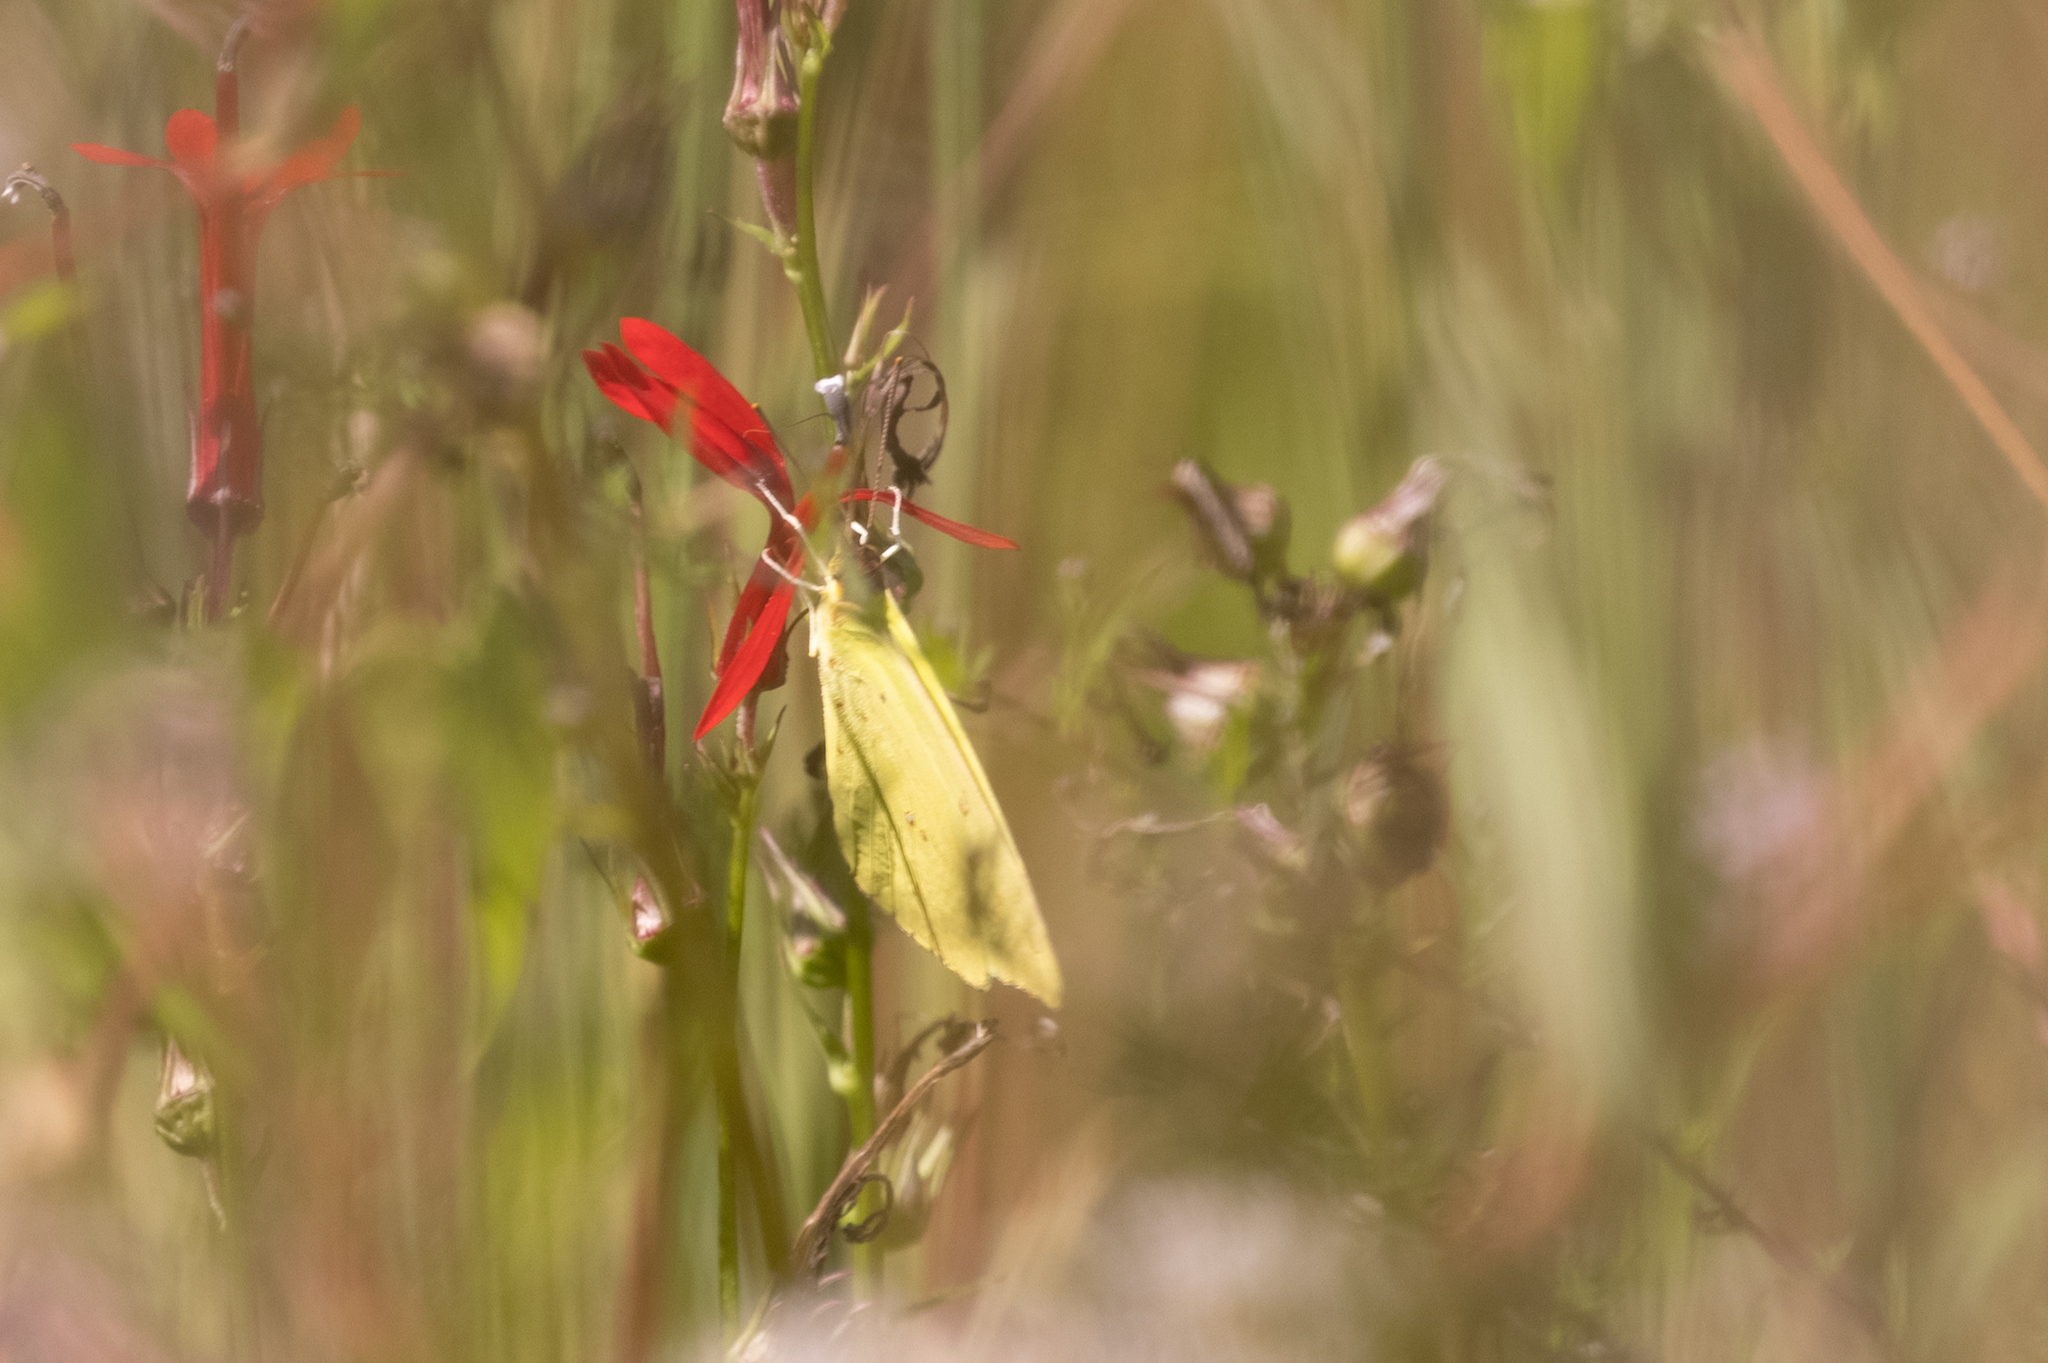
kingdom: Animalia
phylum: Arthropoda
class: Insecta
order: Lepidoptera
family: Pieridae
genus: Phoebis
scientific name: Phoebis sennae
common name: Cloudless sulphur
